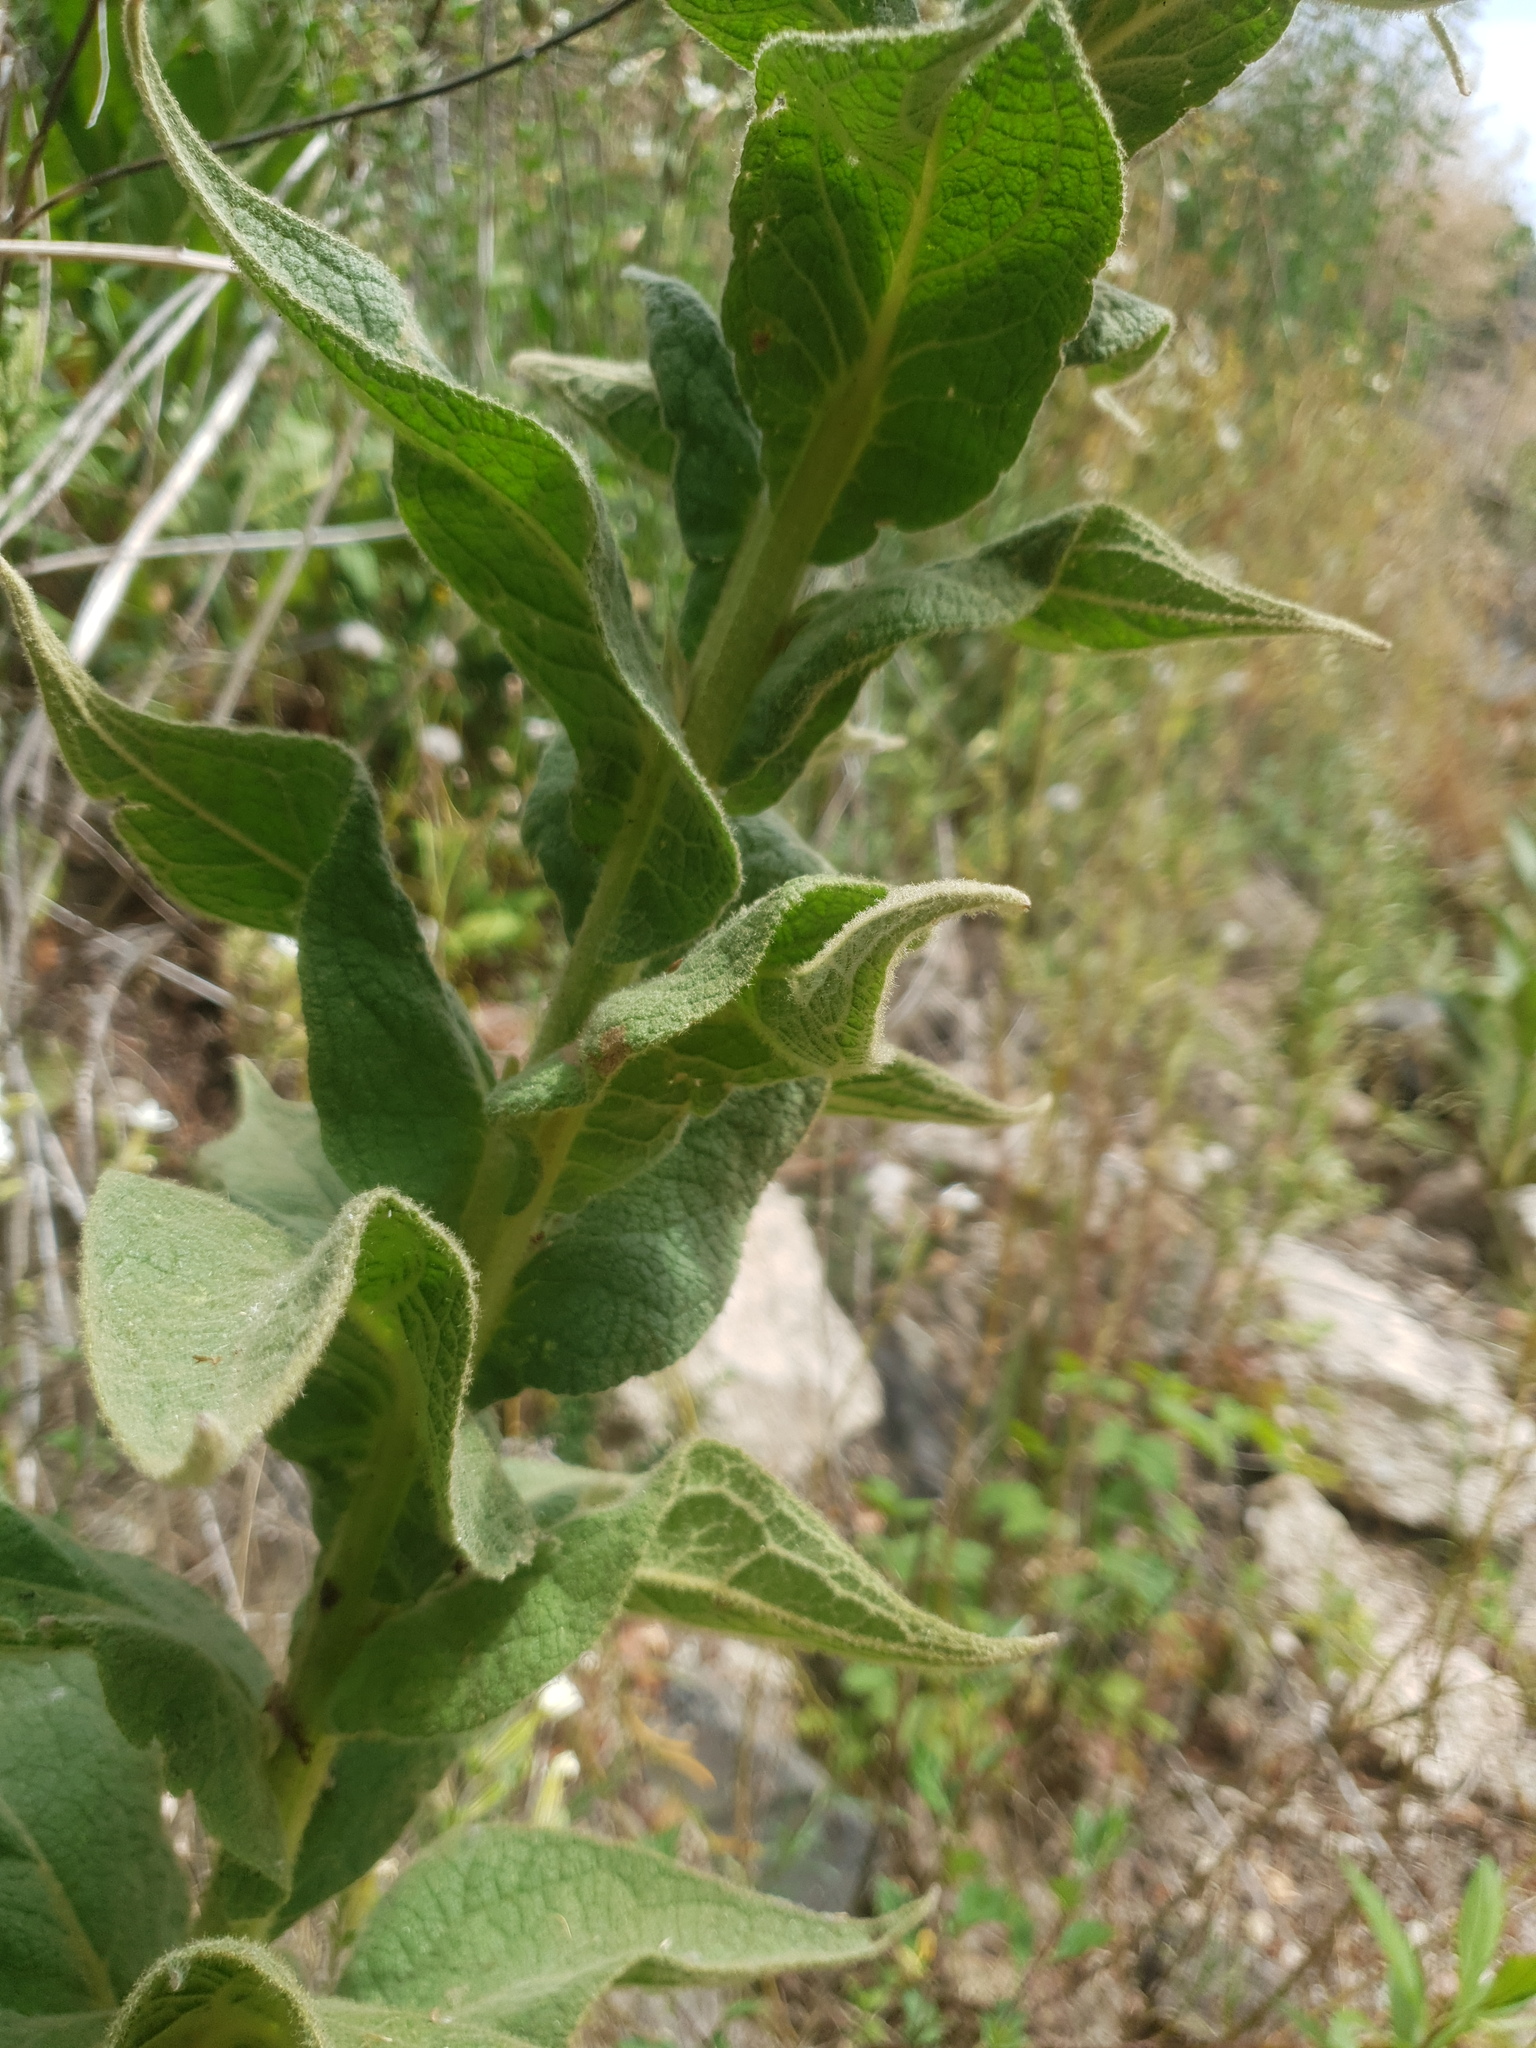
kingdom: Plantae
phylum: Tracheophyta
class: Magnoliopsida
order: Lamiales
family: Scrophulariaceae
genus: Verbascum
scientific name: Verbascum phlomoides
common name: Orange mullein
